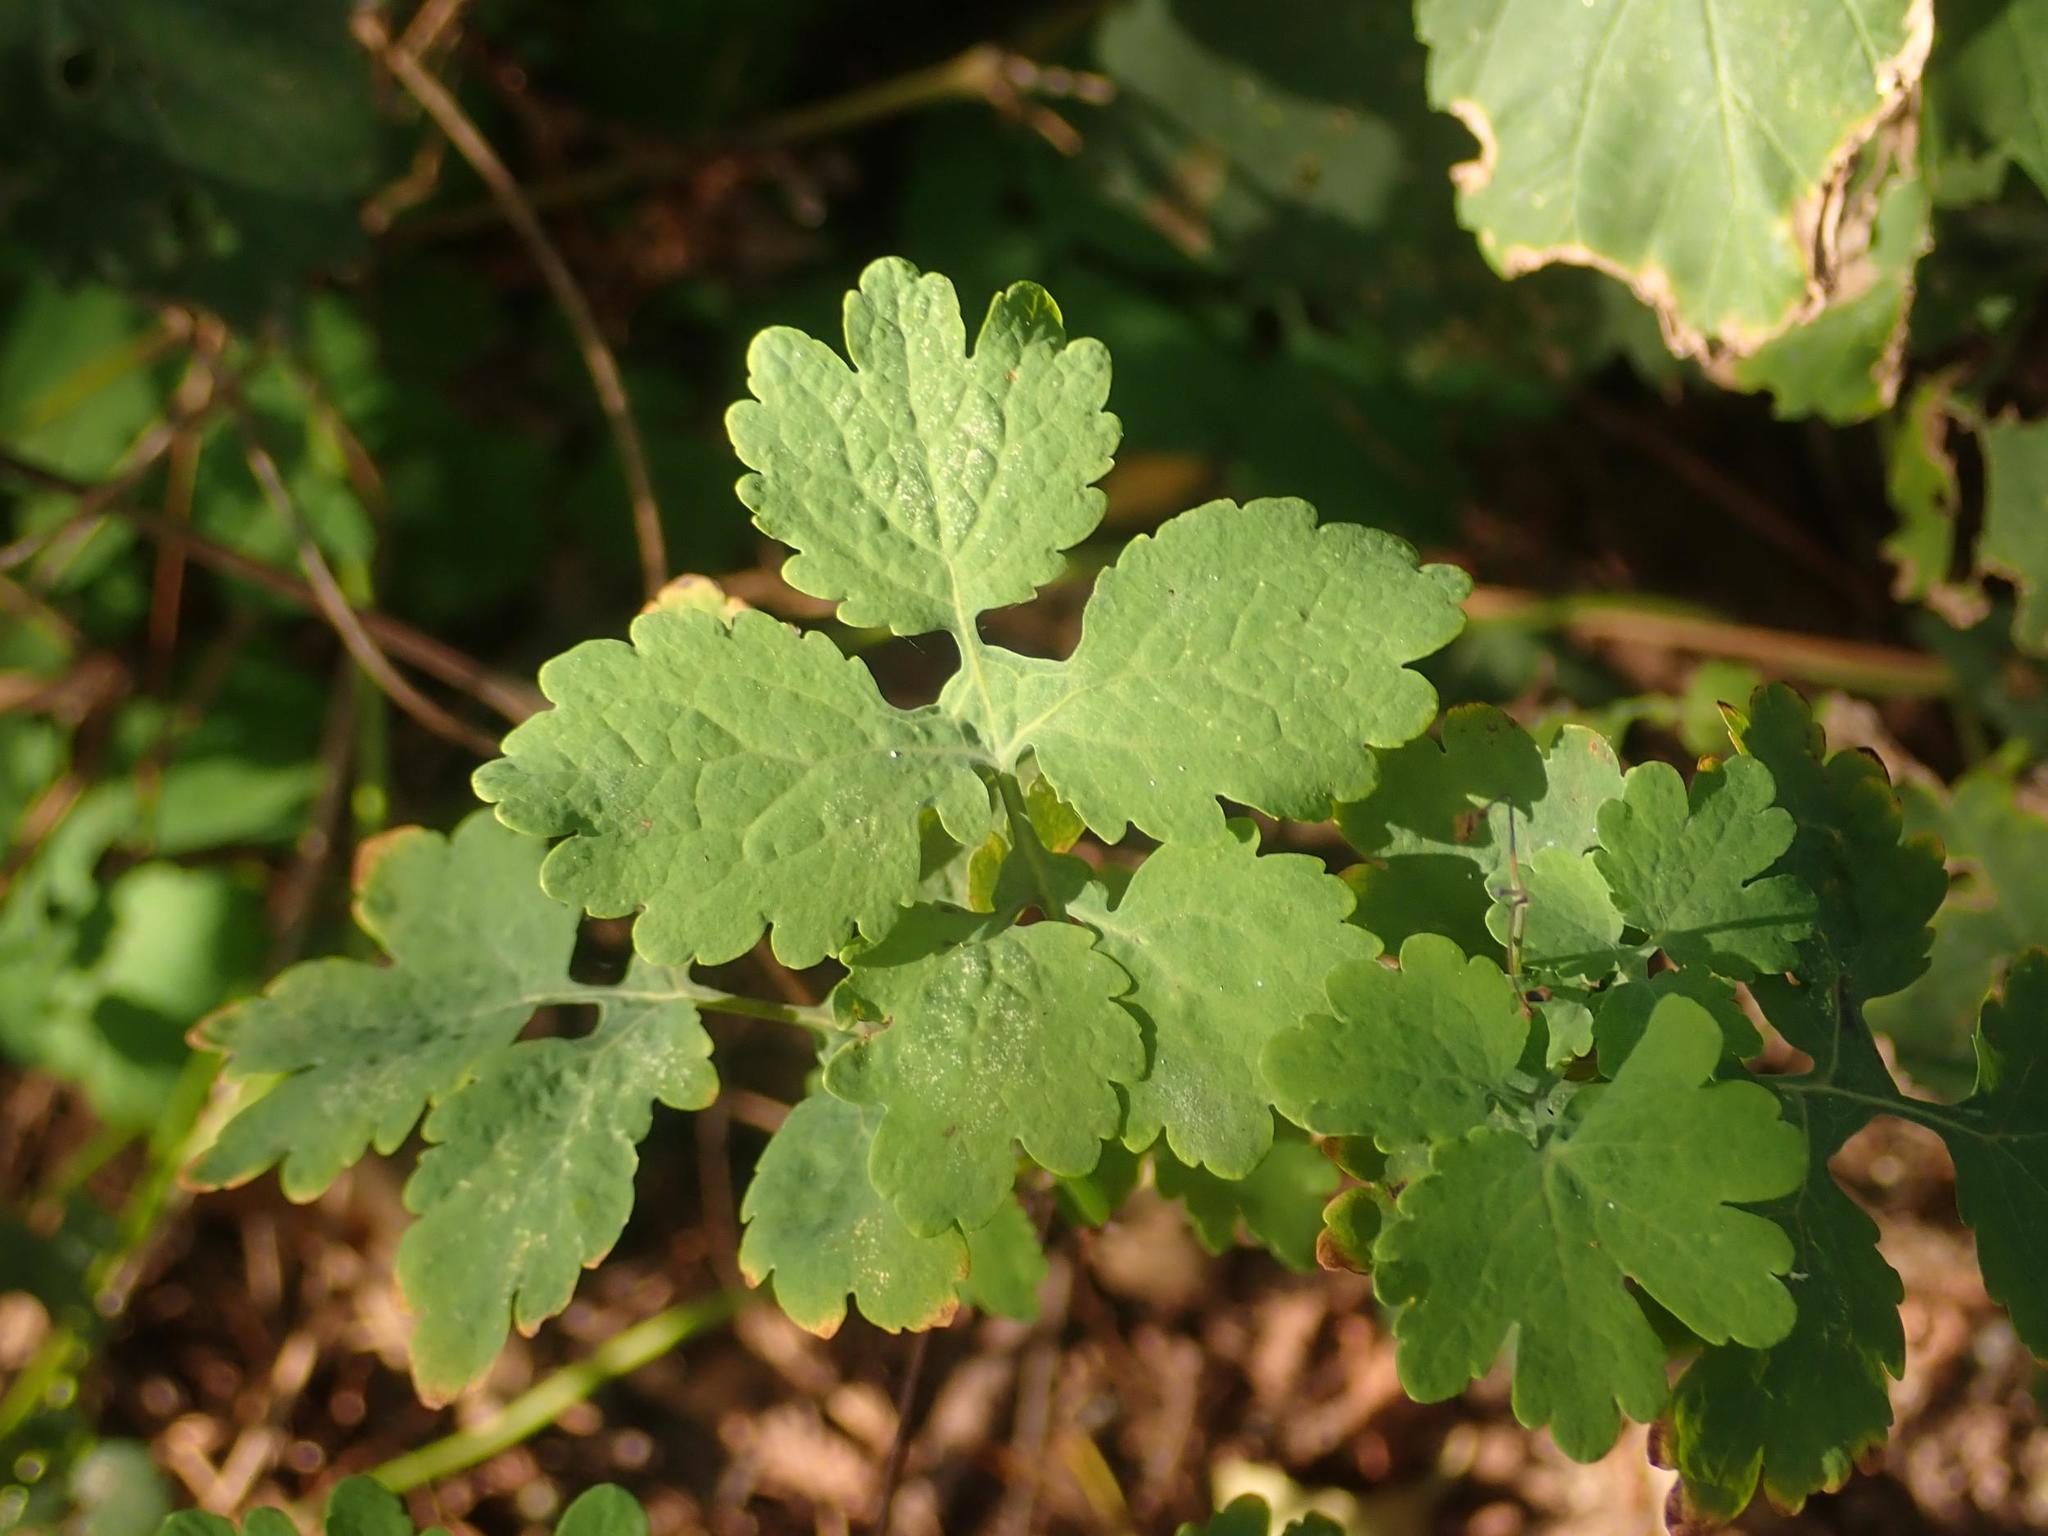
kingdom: Plantae
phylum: Tracheophyta
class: Magnoliopsida
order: Ranunculales
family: Papaveraceae
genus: Chelidonium
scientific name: Chelidonium majus
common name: Greater celandine
